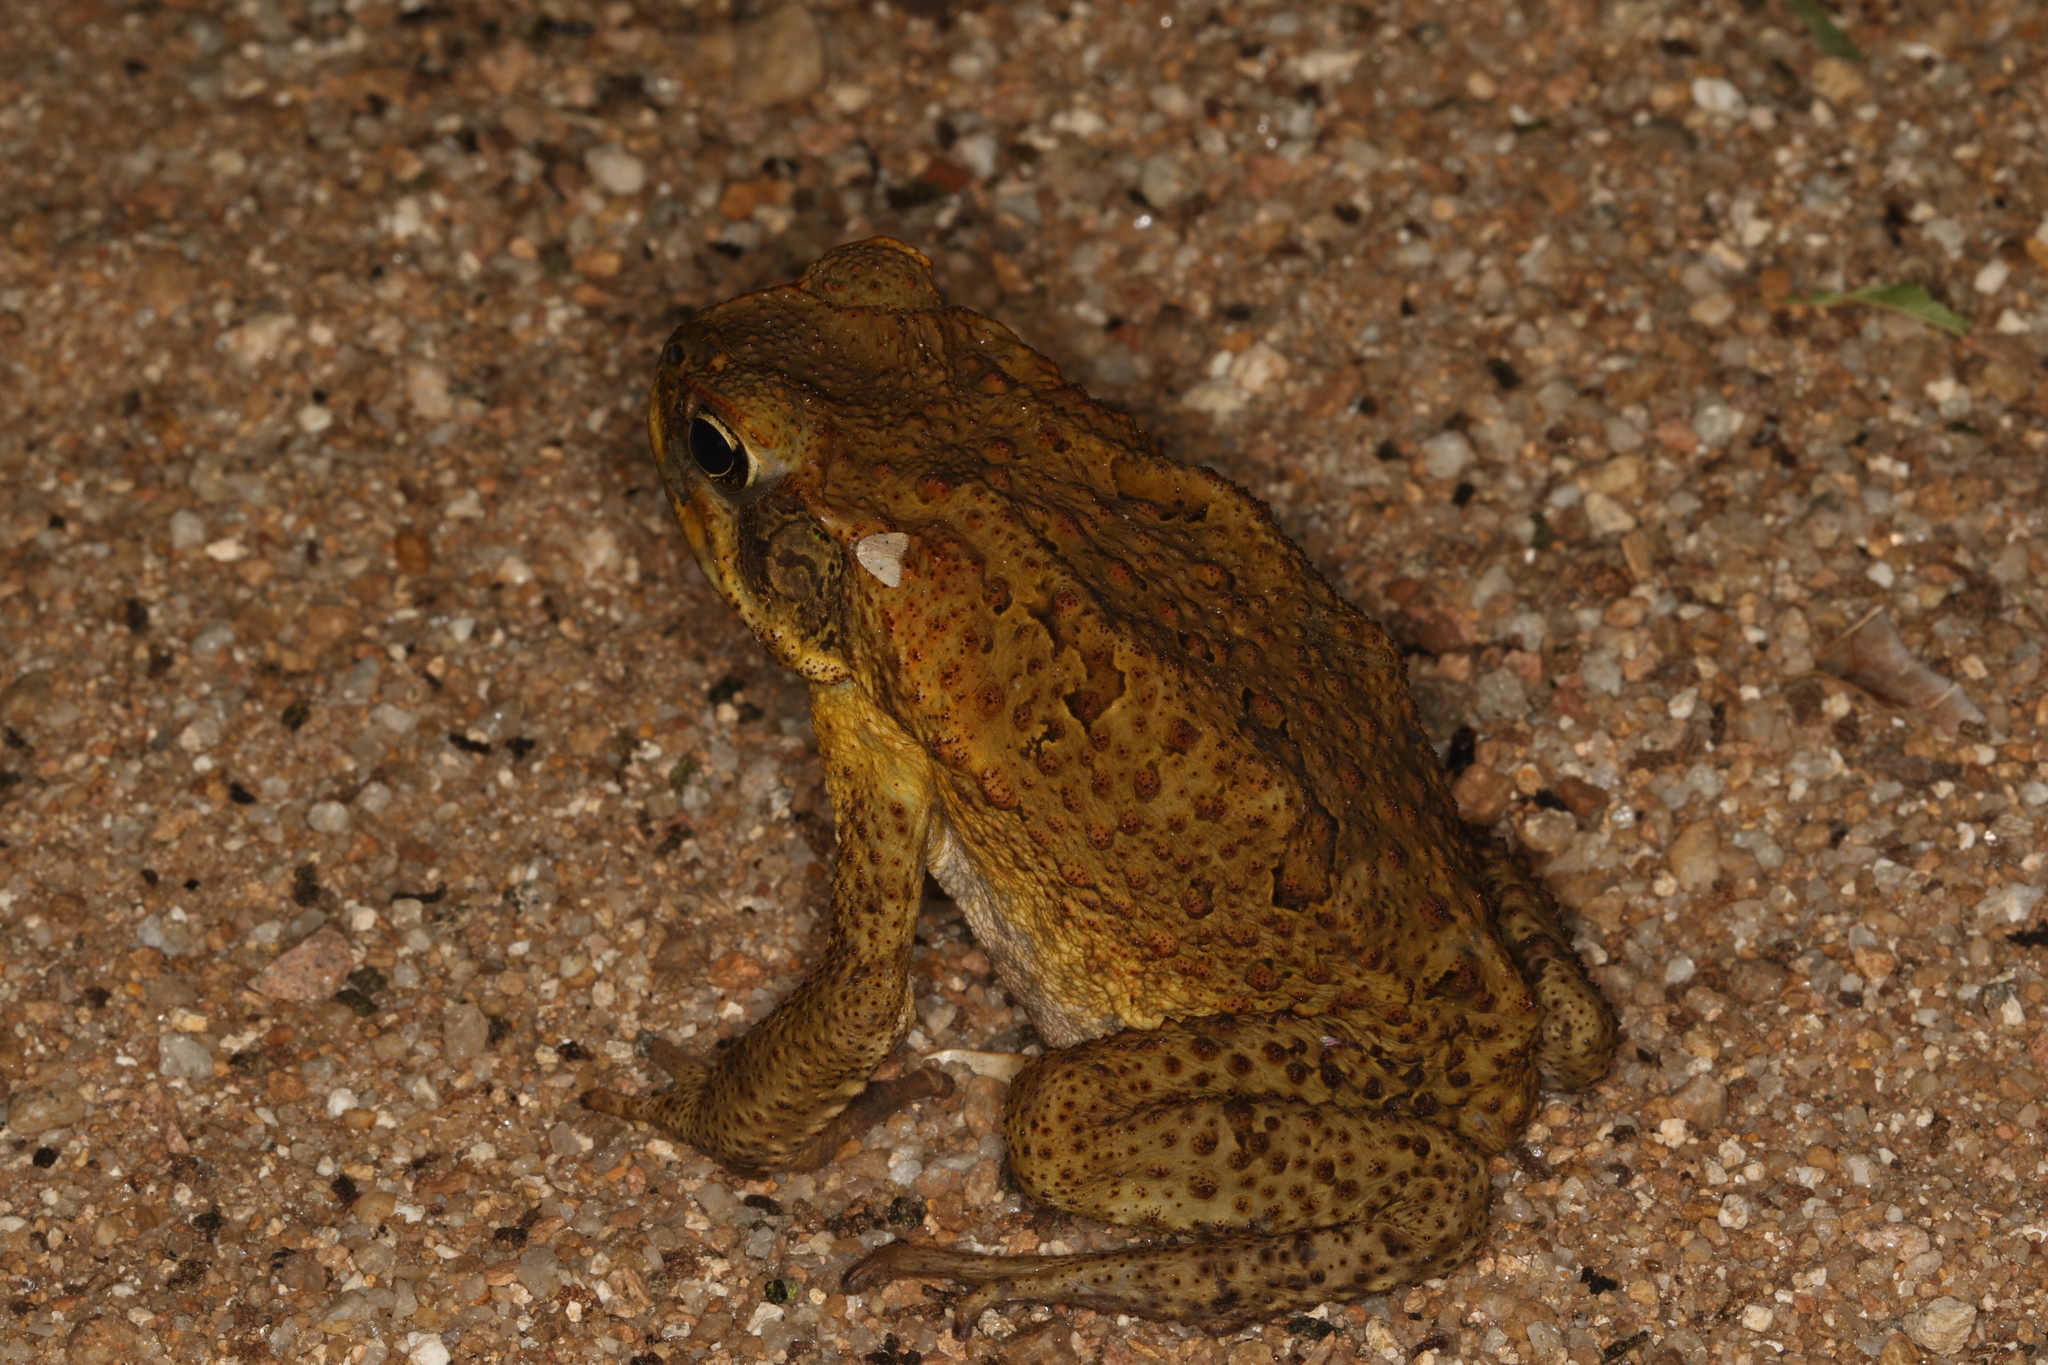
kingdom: Animalia
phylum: Chordata
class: Amphibia
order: Anura
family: Bufonidae
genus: Rhinella
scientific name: Rhinella marina
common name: Cane toad
